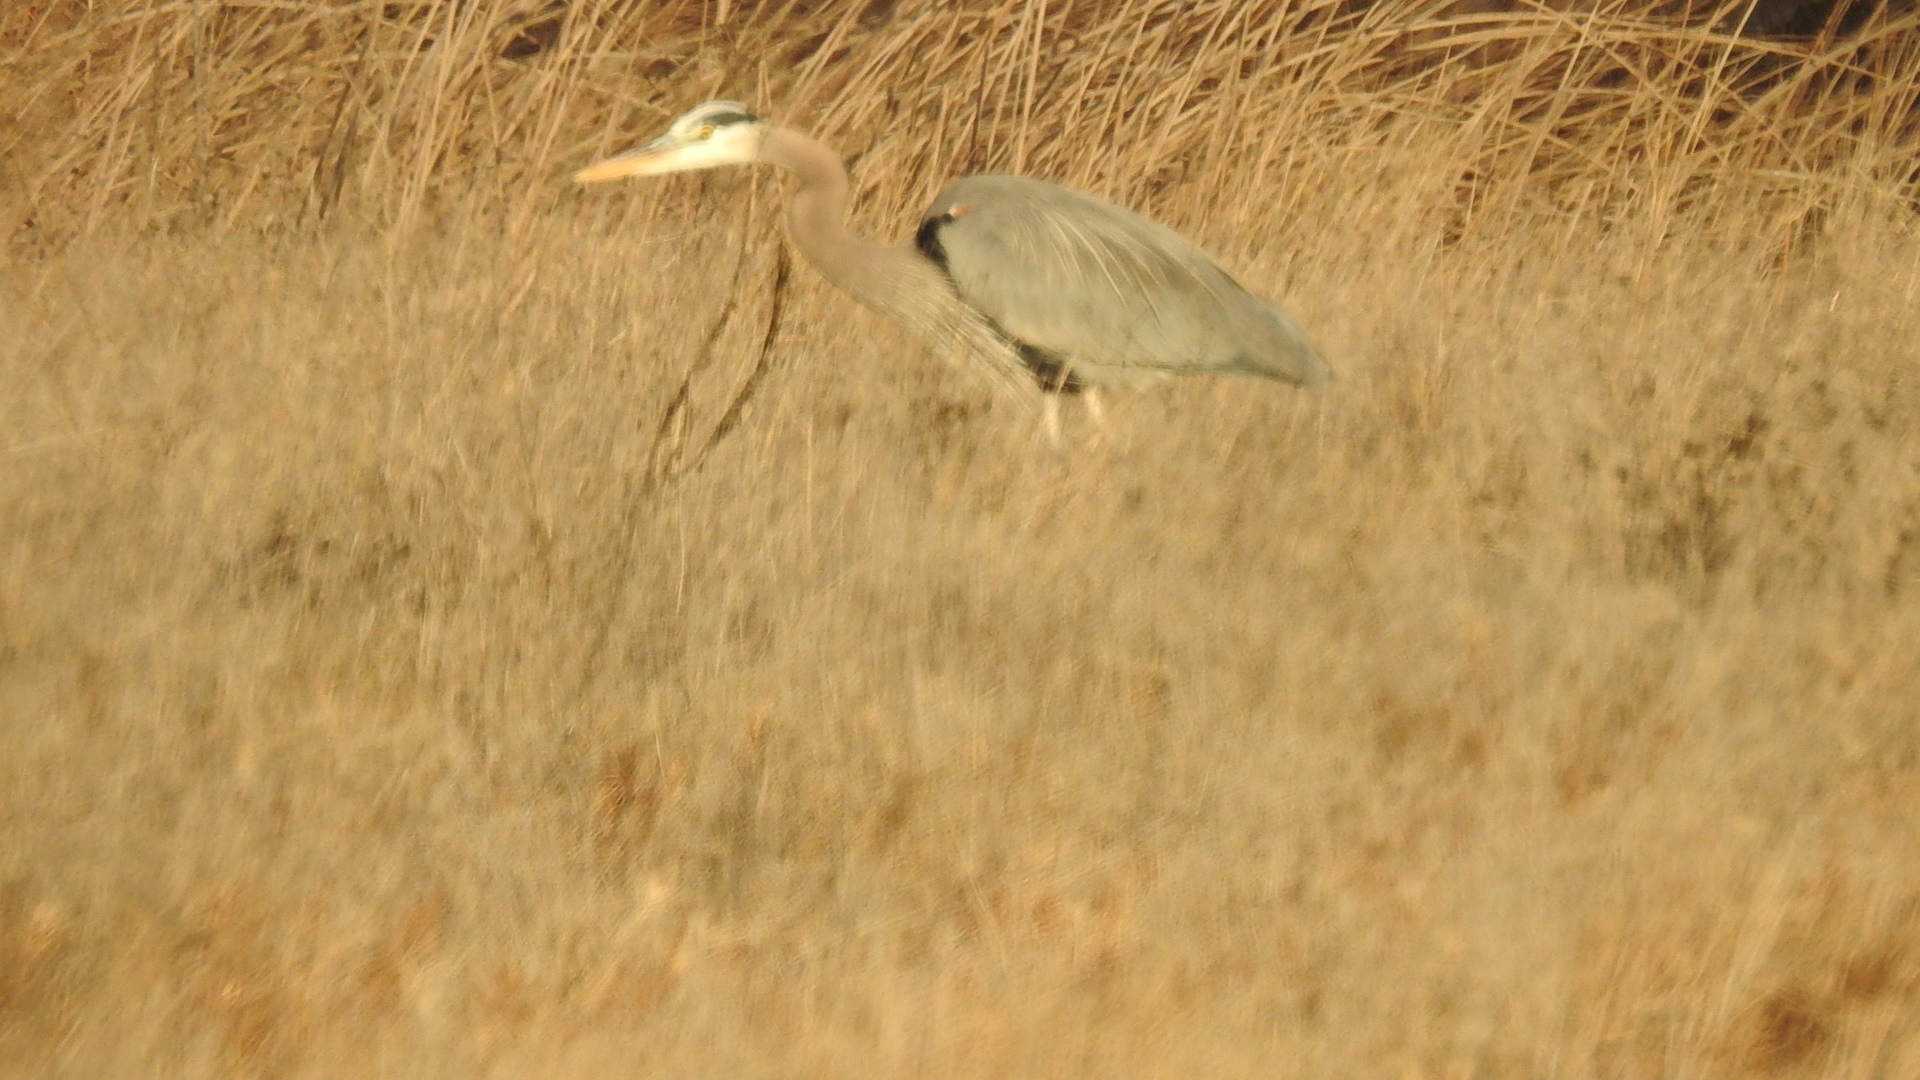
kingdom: Animalia
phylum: Chordata
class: Aves
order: Pelecaniformes
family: Ardeidae
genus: Ardea
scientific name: Ardea herodias
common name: Great blue heron
